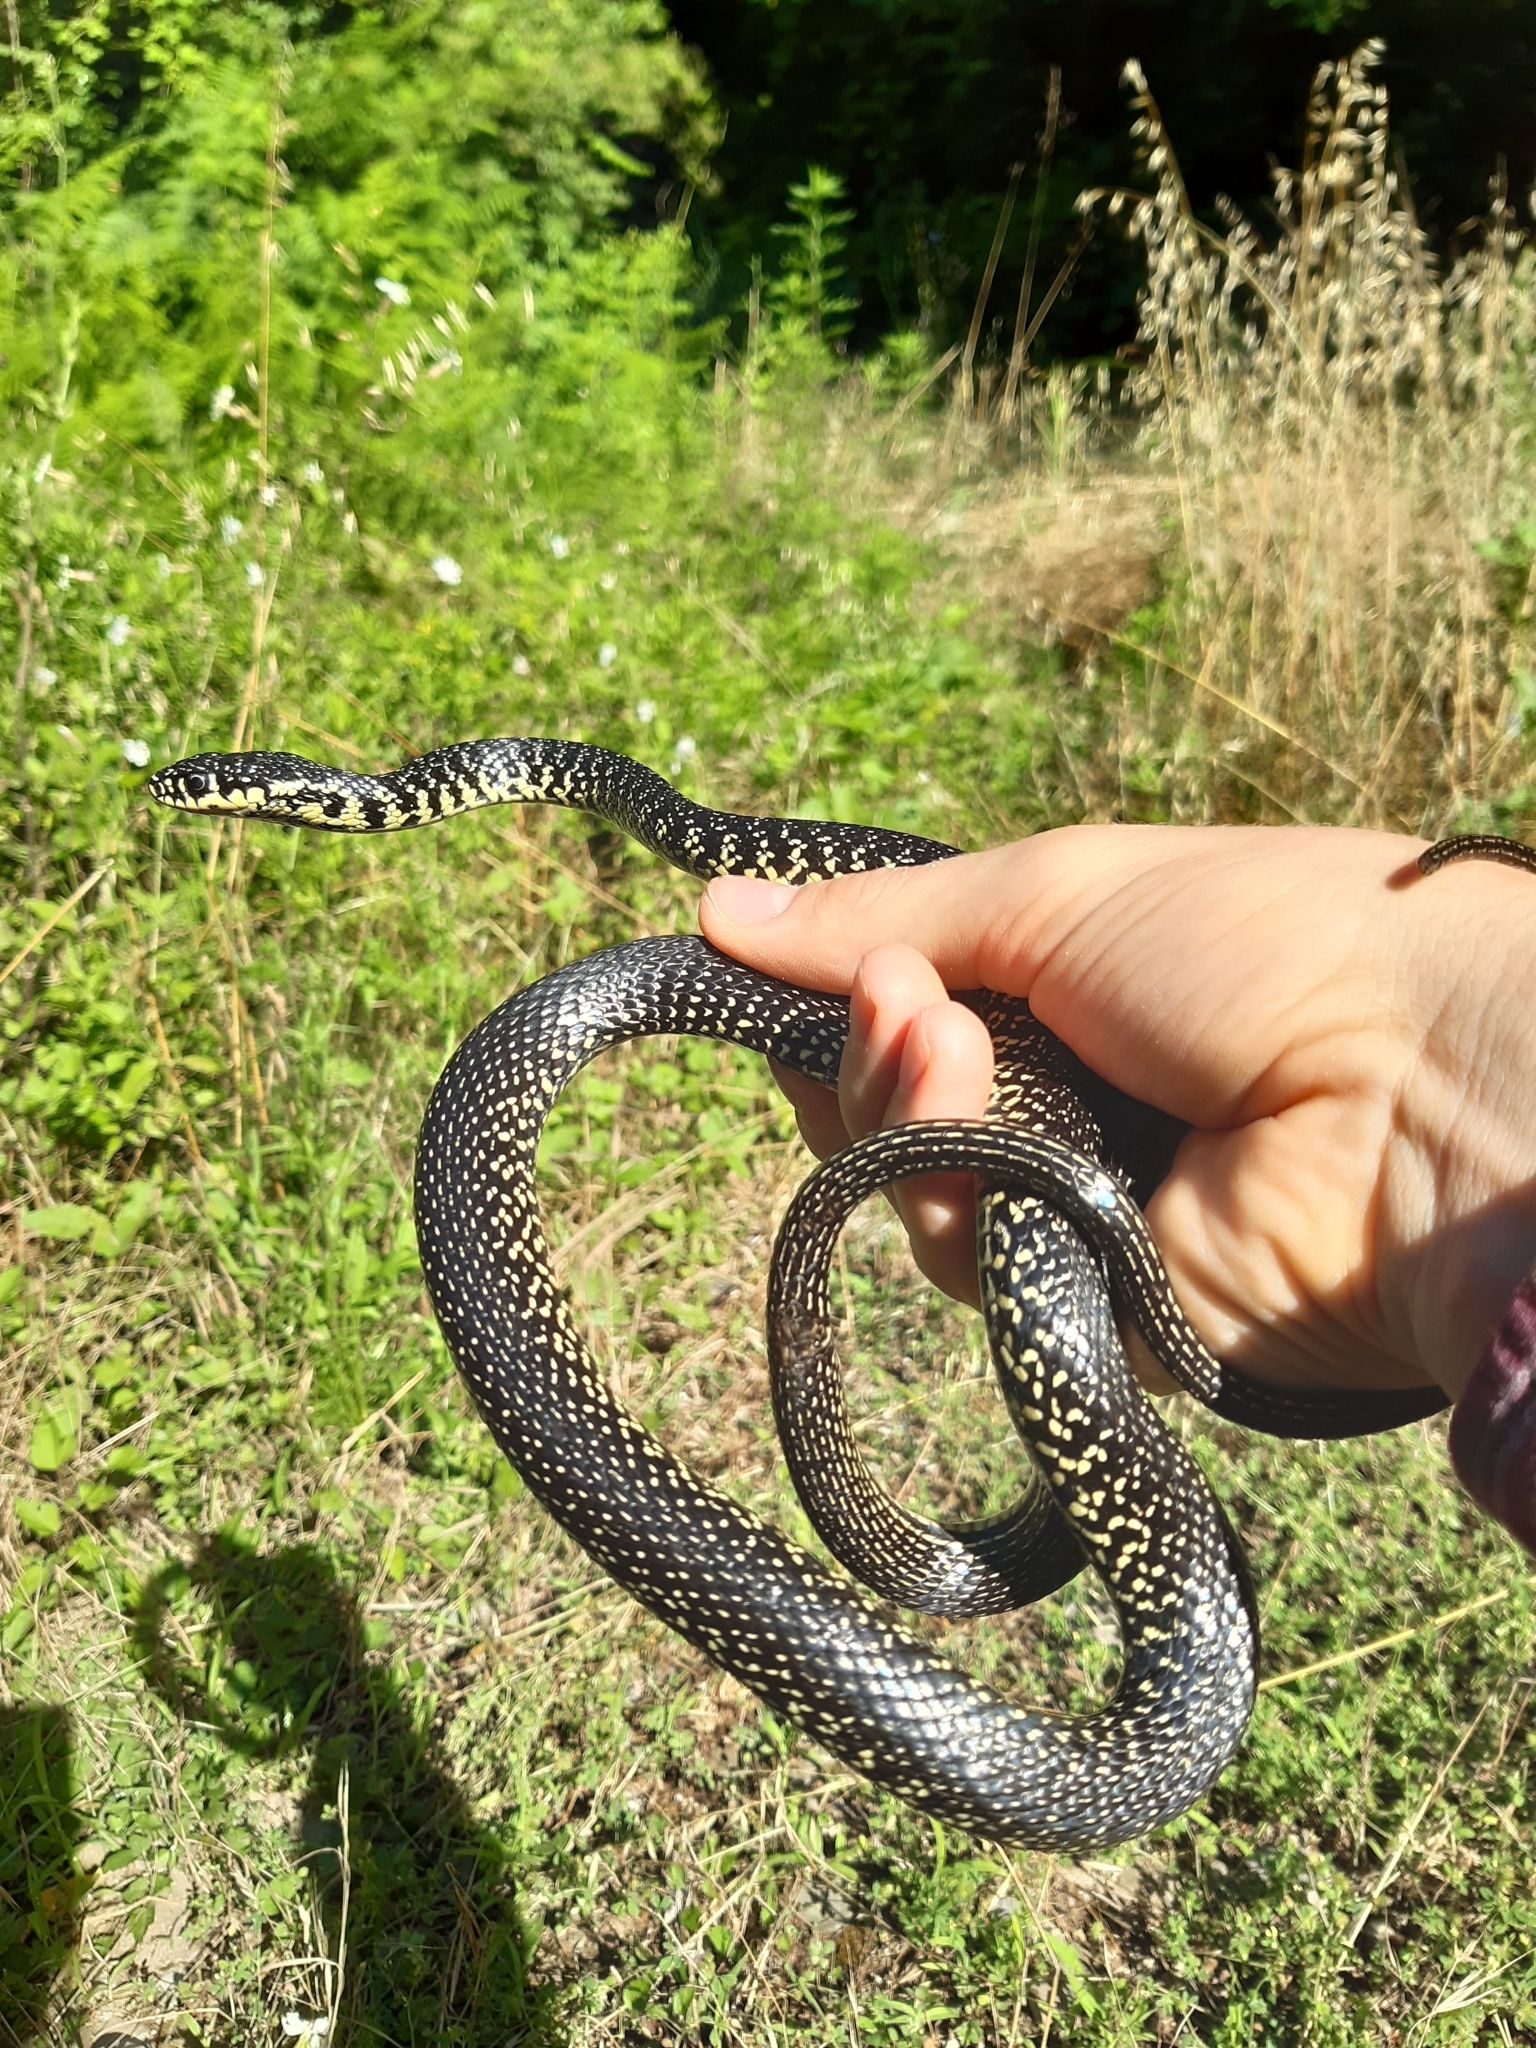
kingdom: Animalia
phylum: Chordata
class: Squamata
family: Colubridae
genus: Hierophis
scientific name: Hierophis viridiflavus
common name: Green whip snake
